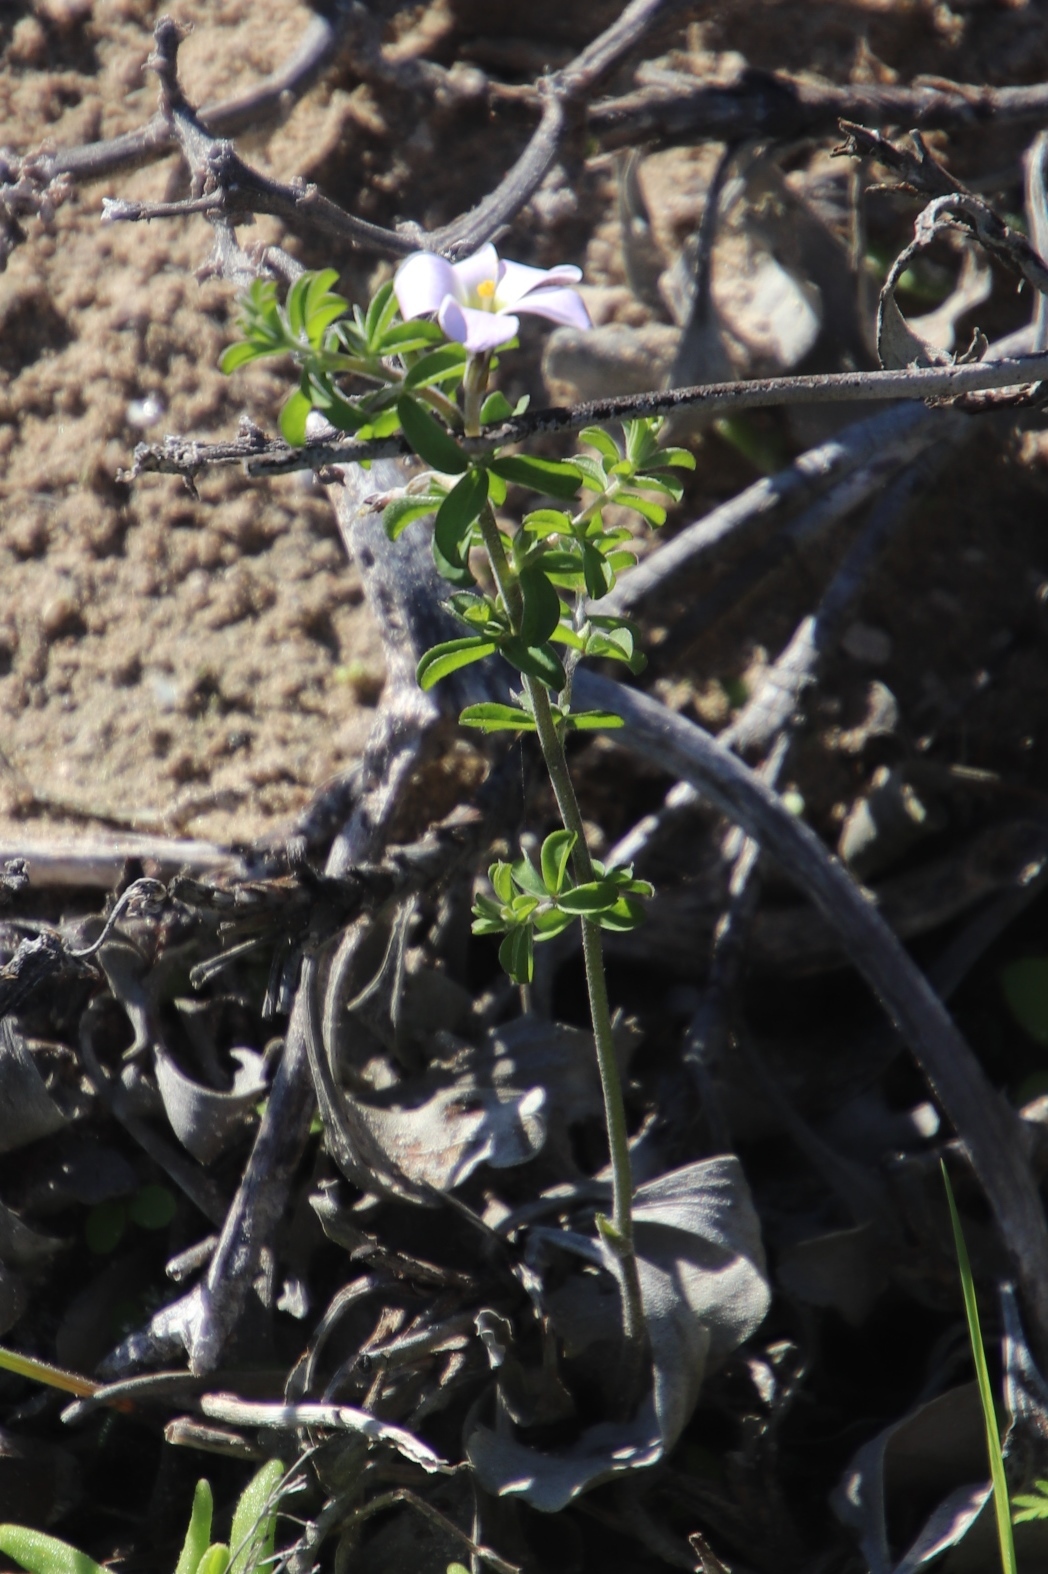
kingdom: Plantae
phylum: Tracheophyta
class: Magnoliopsida
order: Oxalidales
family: Oxalidaceae
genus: Oxalis
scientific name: Oxalis hirta
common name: Tropical woodsorrel
